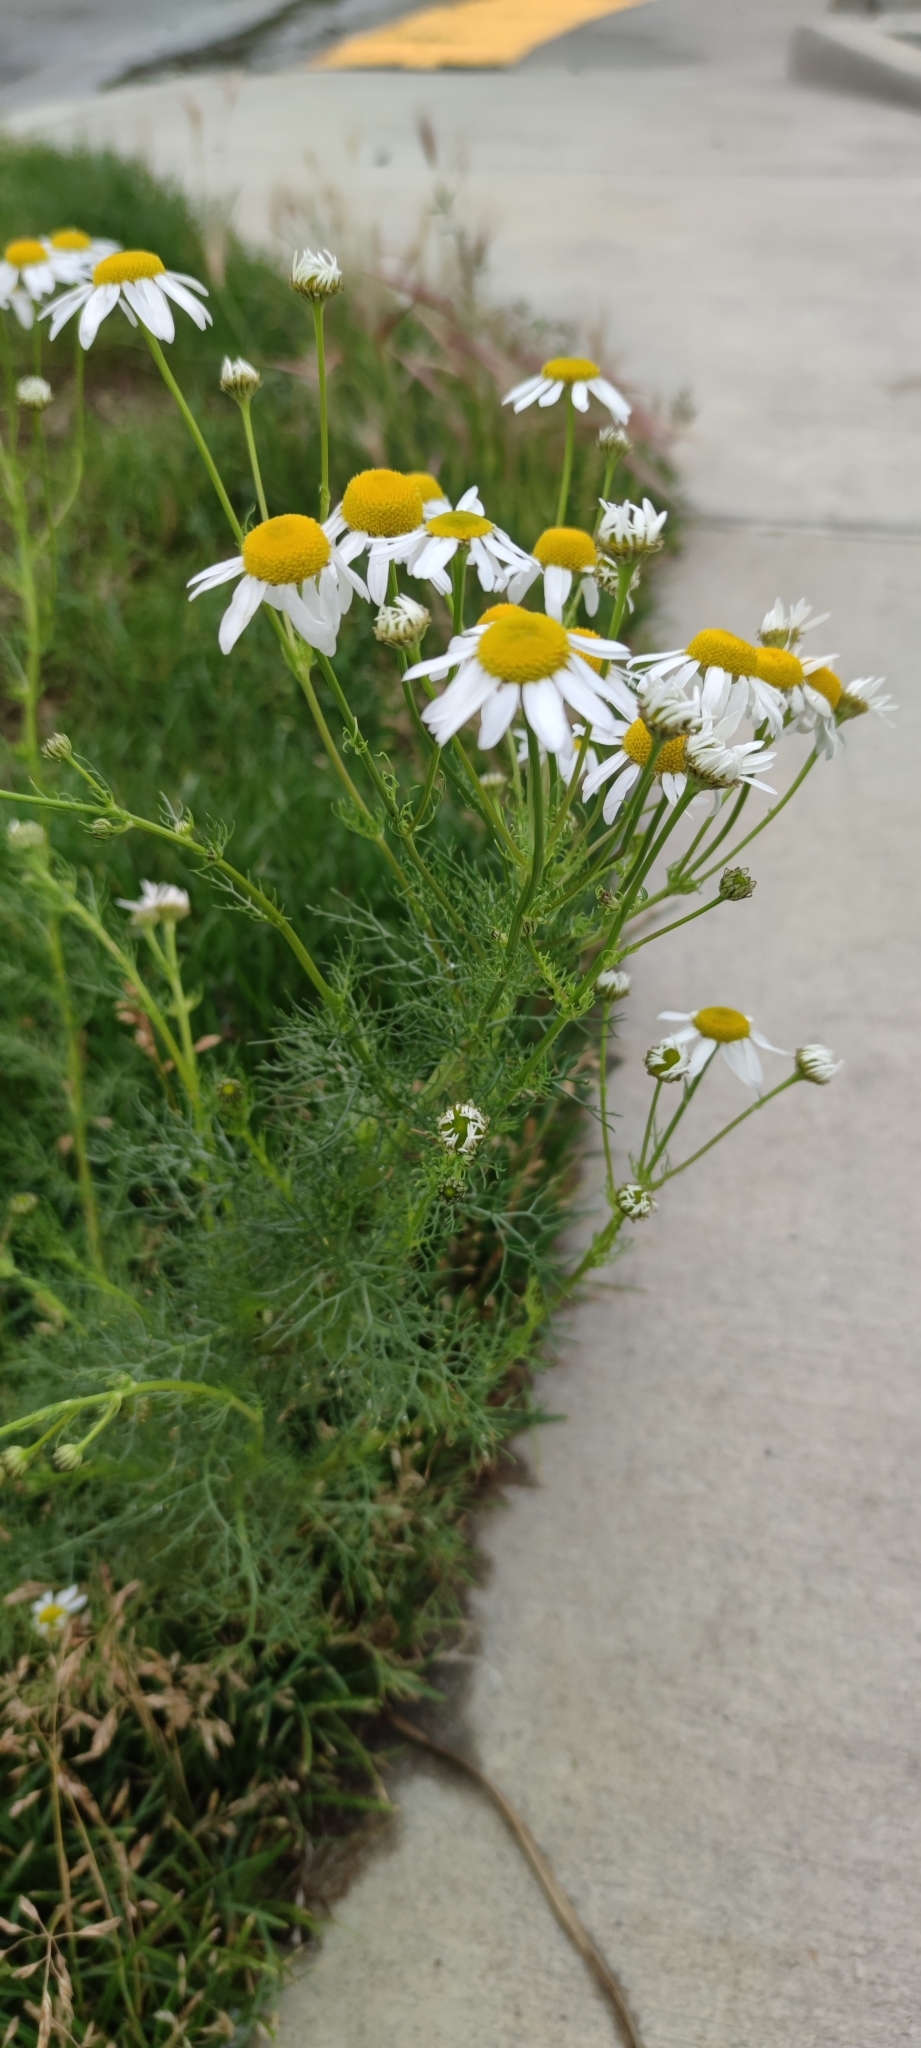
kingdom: Plantae
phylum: Tracheophyta
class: Magnoliopsida
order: Asterales
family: Asteraceae
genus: Tripleurospermum
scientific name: Tripleurospermum inodorum
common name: Scentless mayweed
